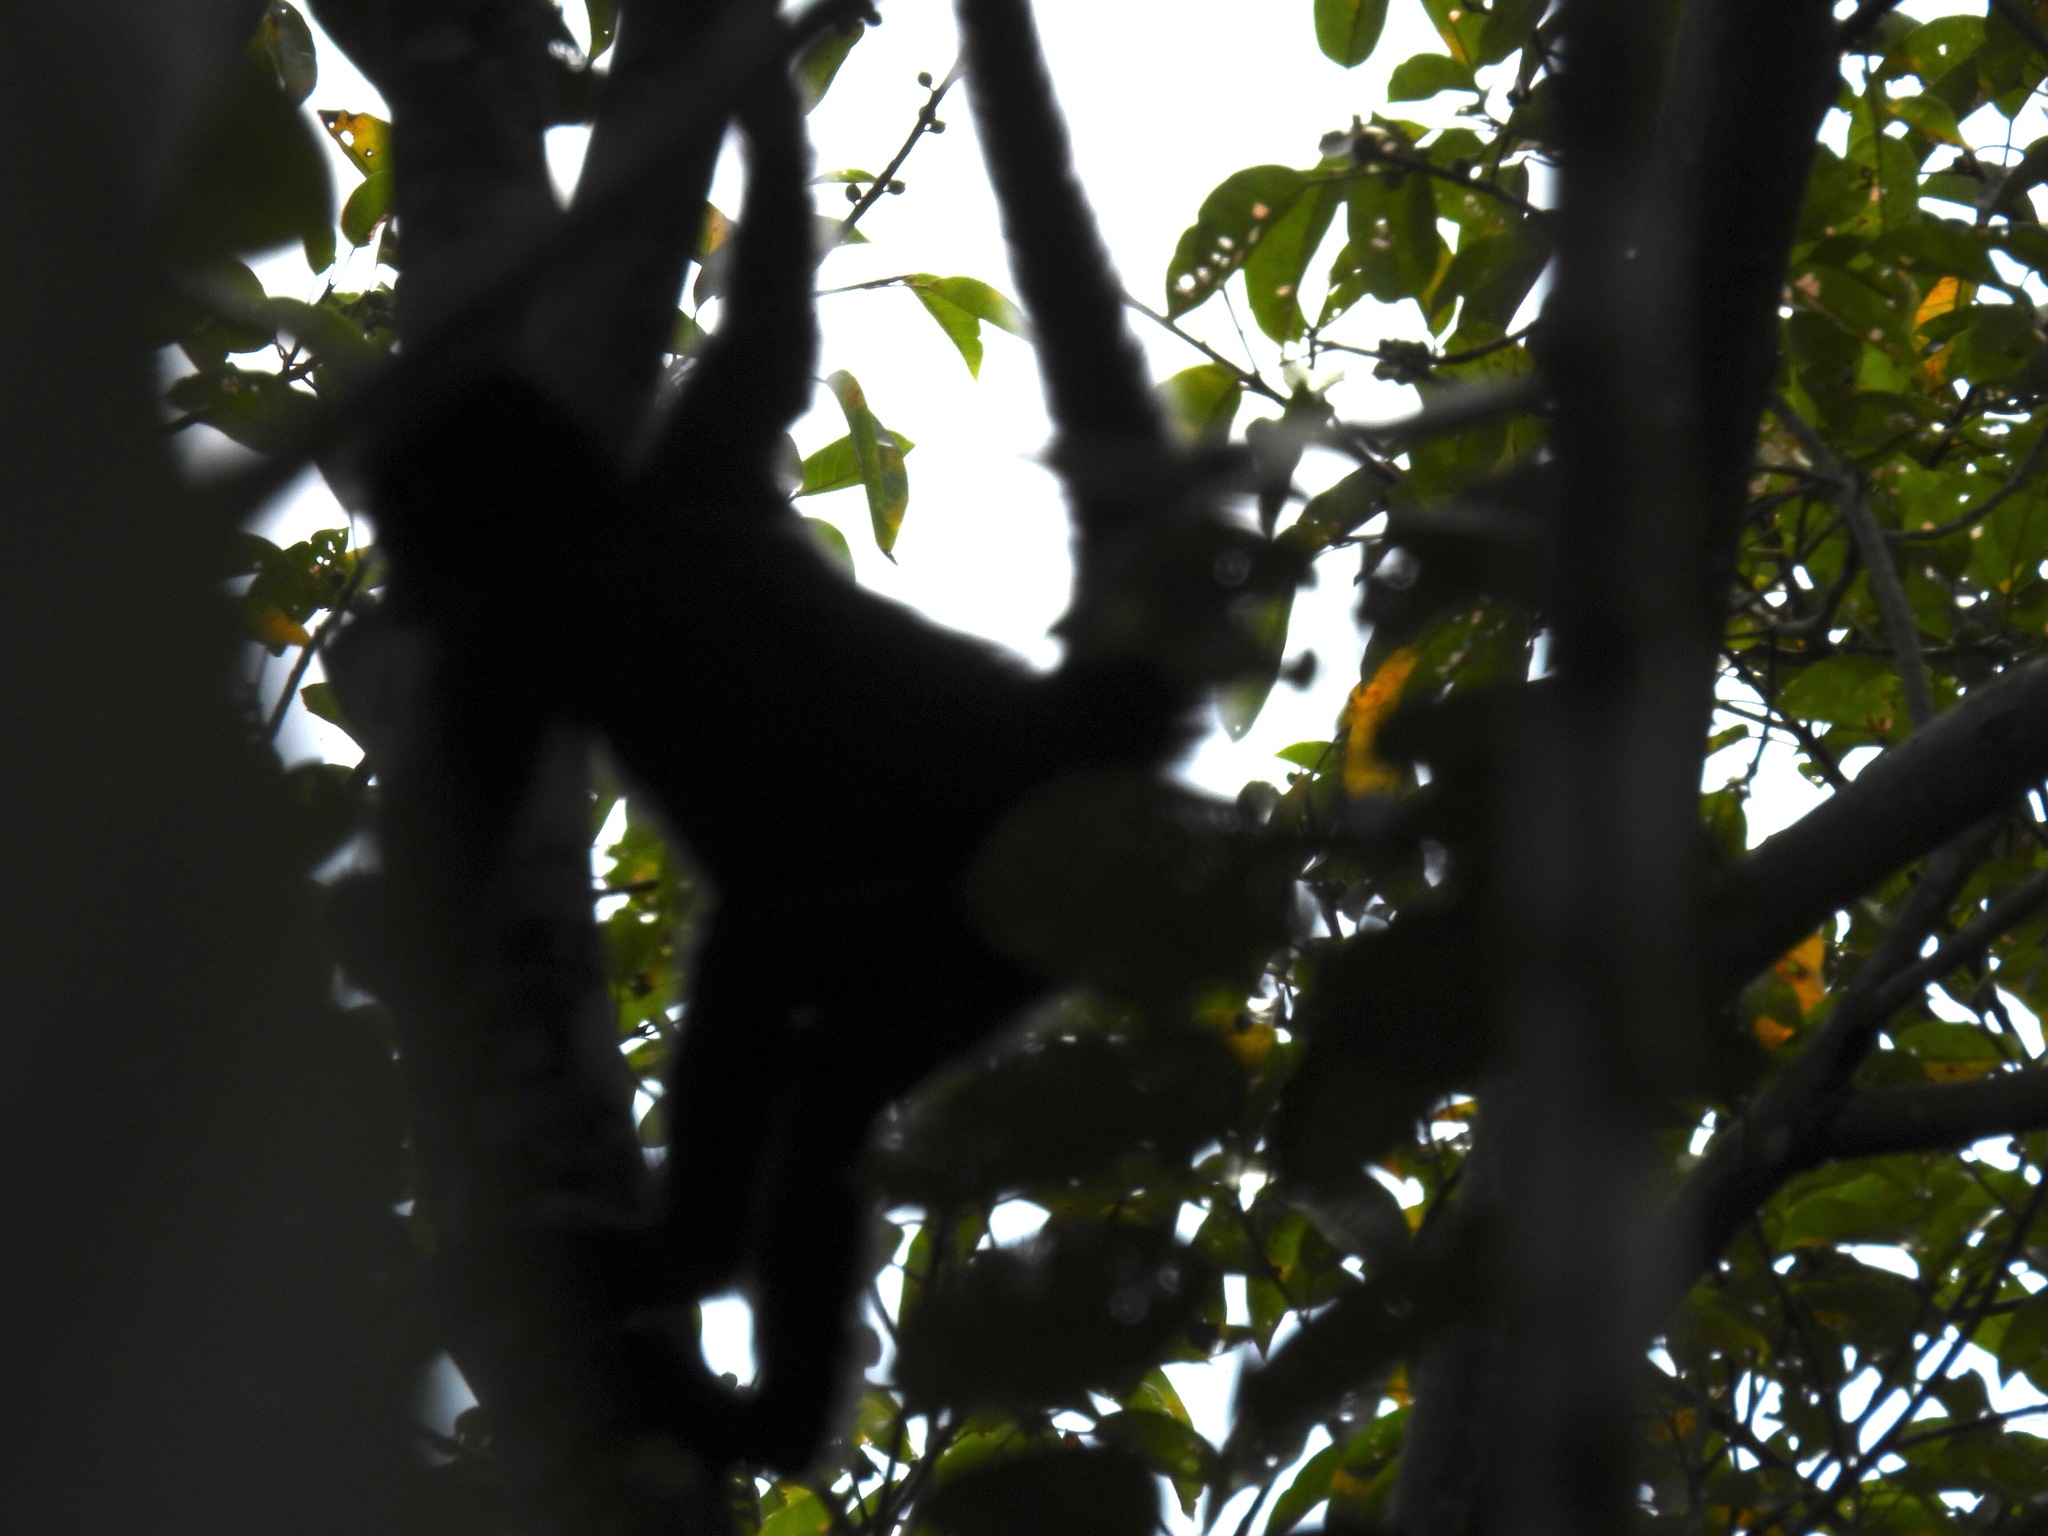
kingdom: Animalia
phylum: Chordata
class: Mammalia
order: Primates
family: Atelidae
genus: Ateles
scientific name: Ateles fusciceps
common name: Black-headed spider monkey
